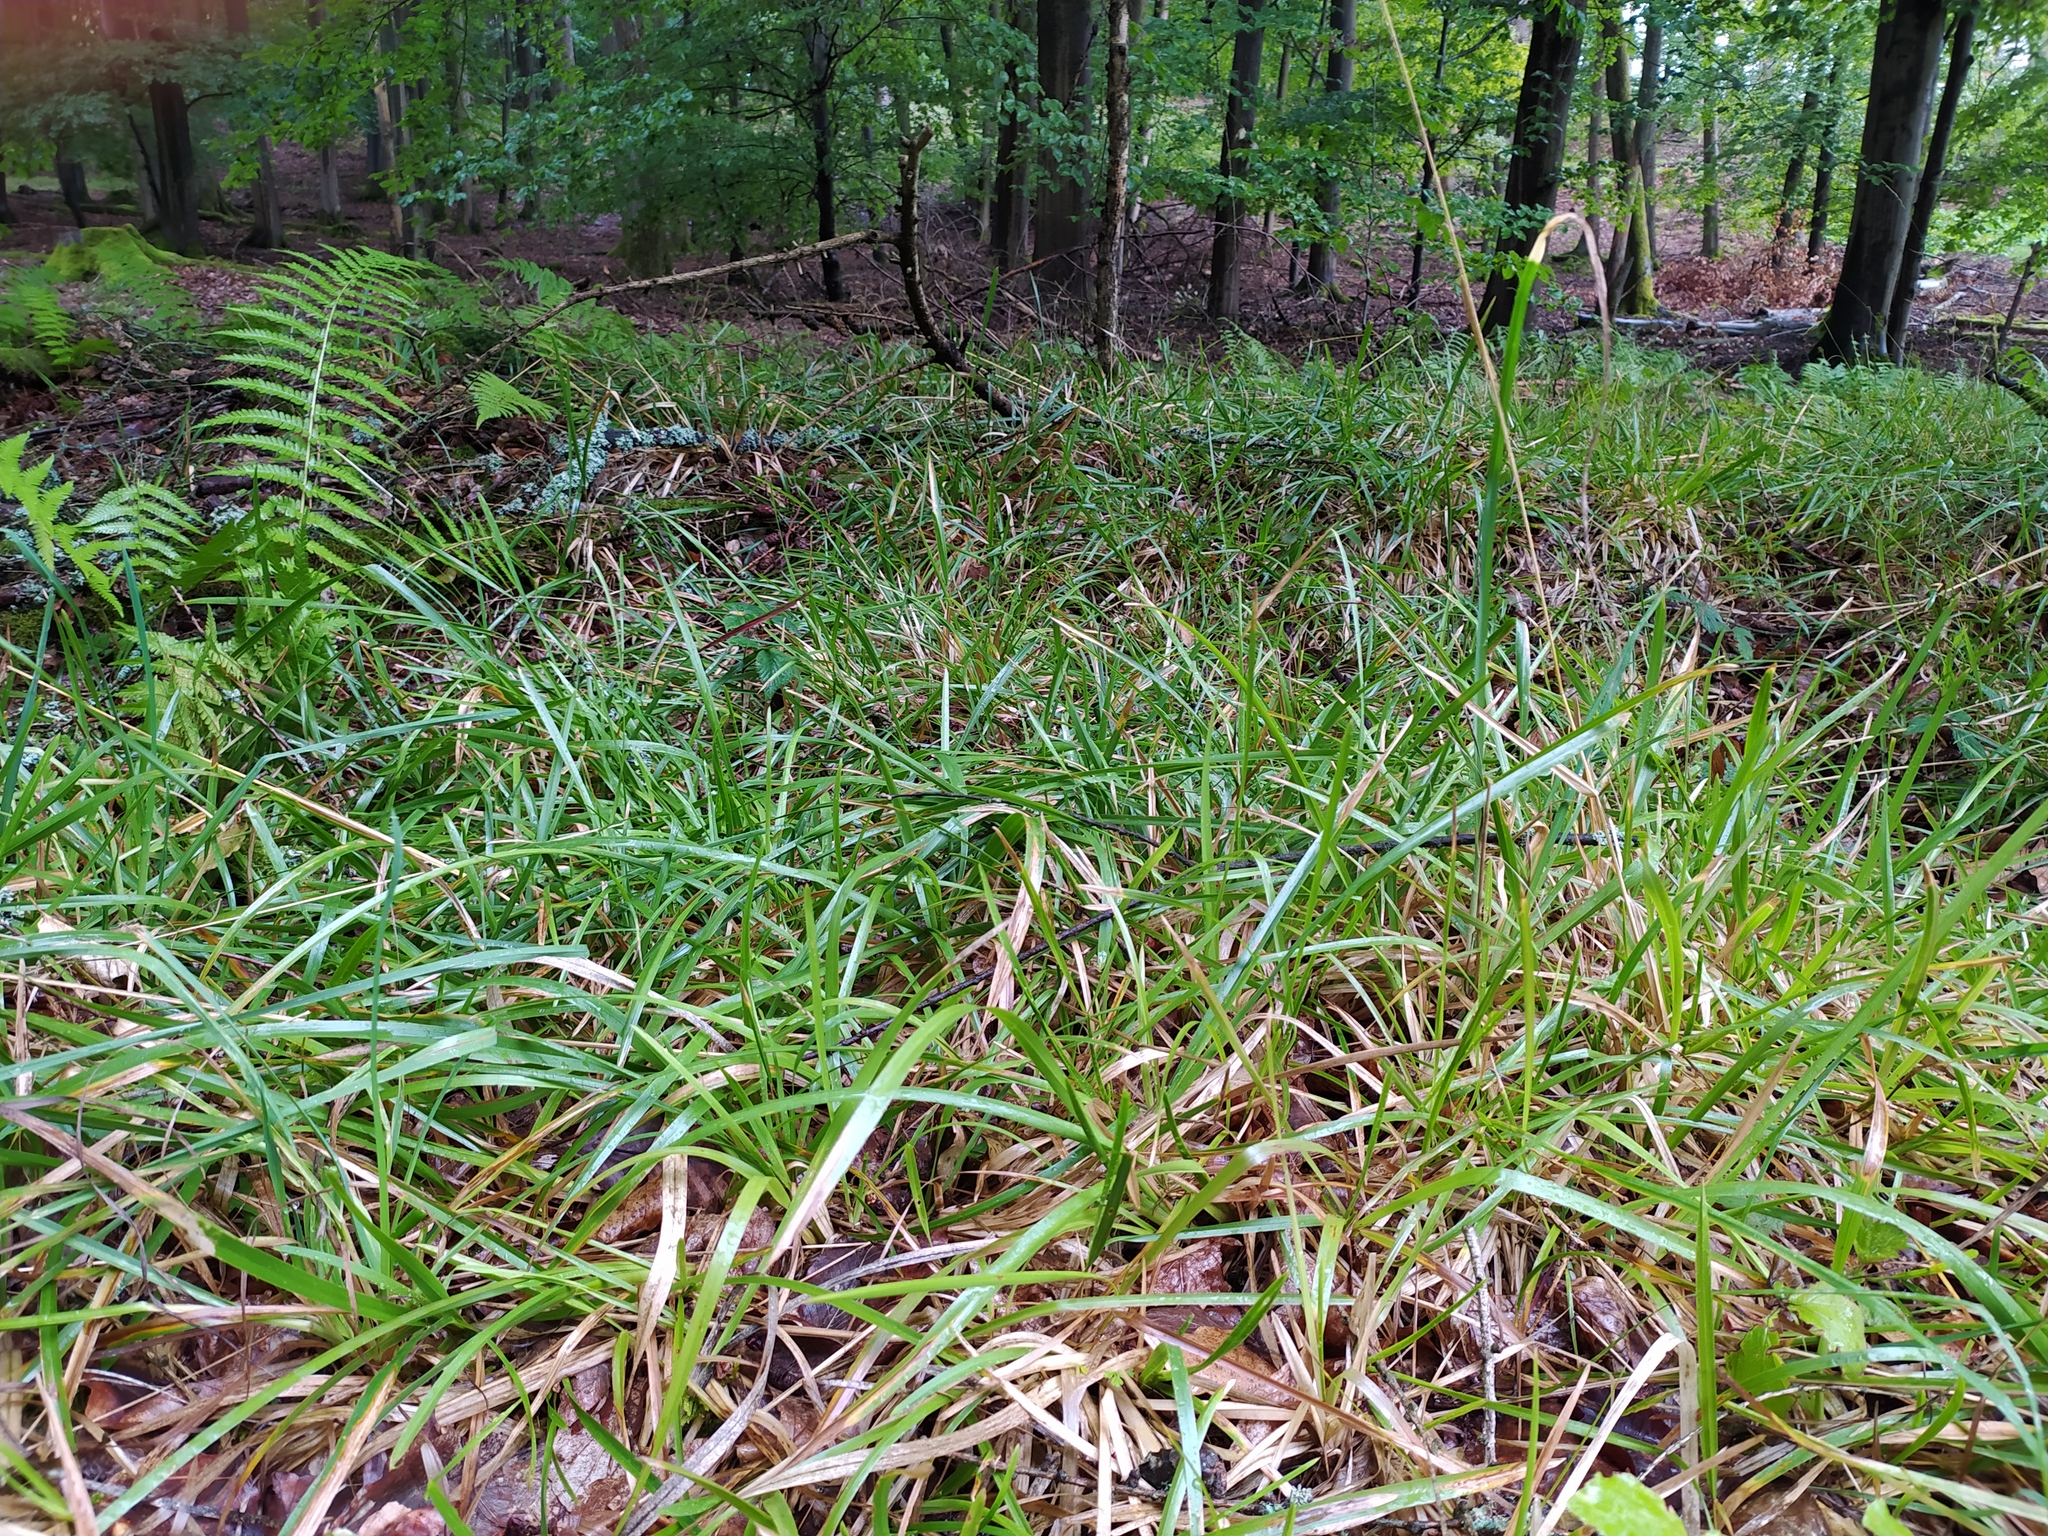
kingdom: Plantae
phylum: Tracheophyta
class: Liliopsida
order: Poales
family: Poaceae
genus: Poa
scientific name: Poa chaixii
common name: Broad-leaved meadow-grass
